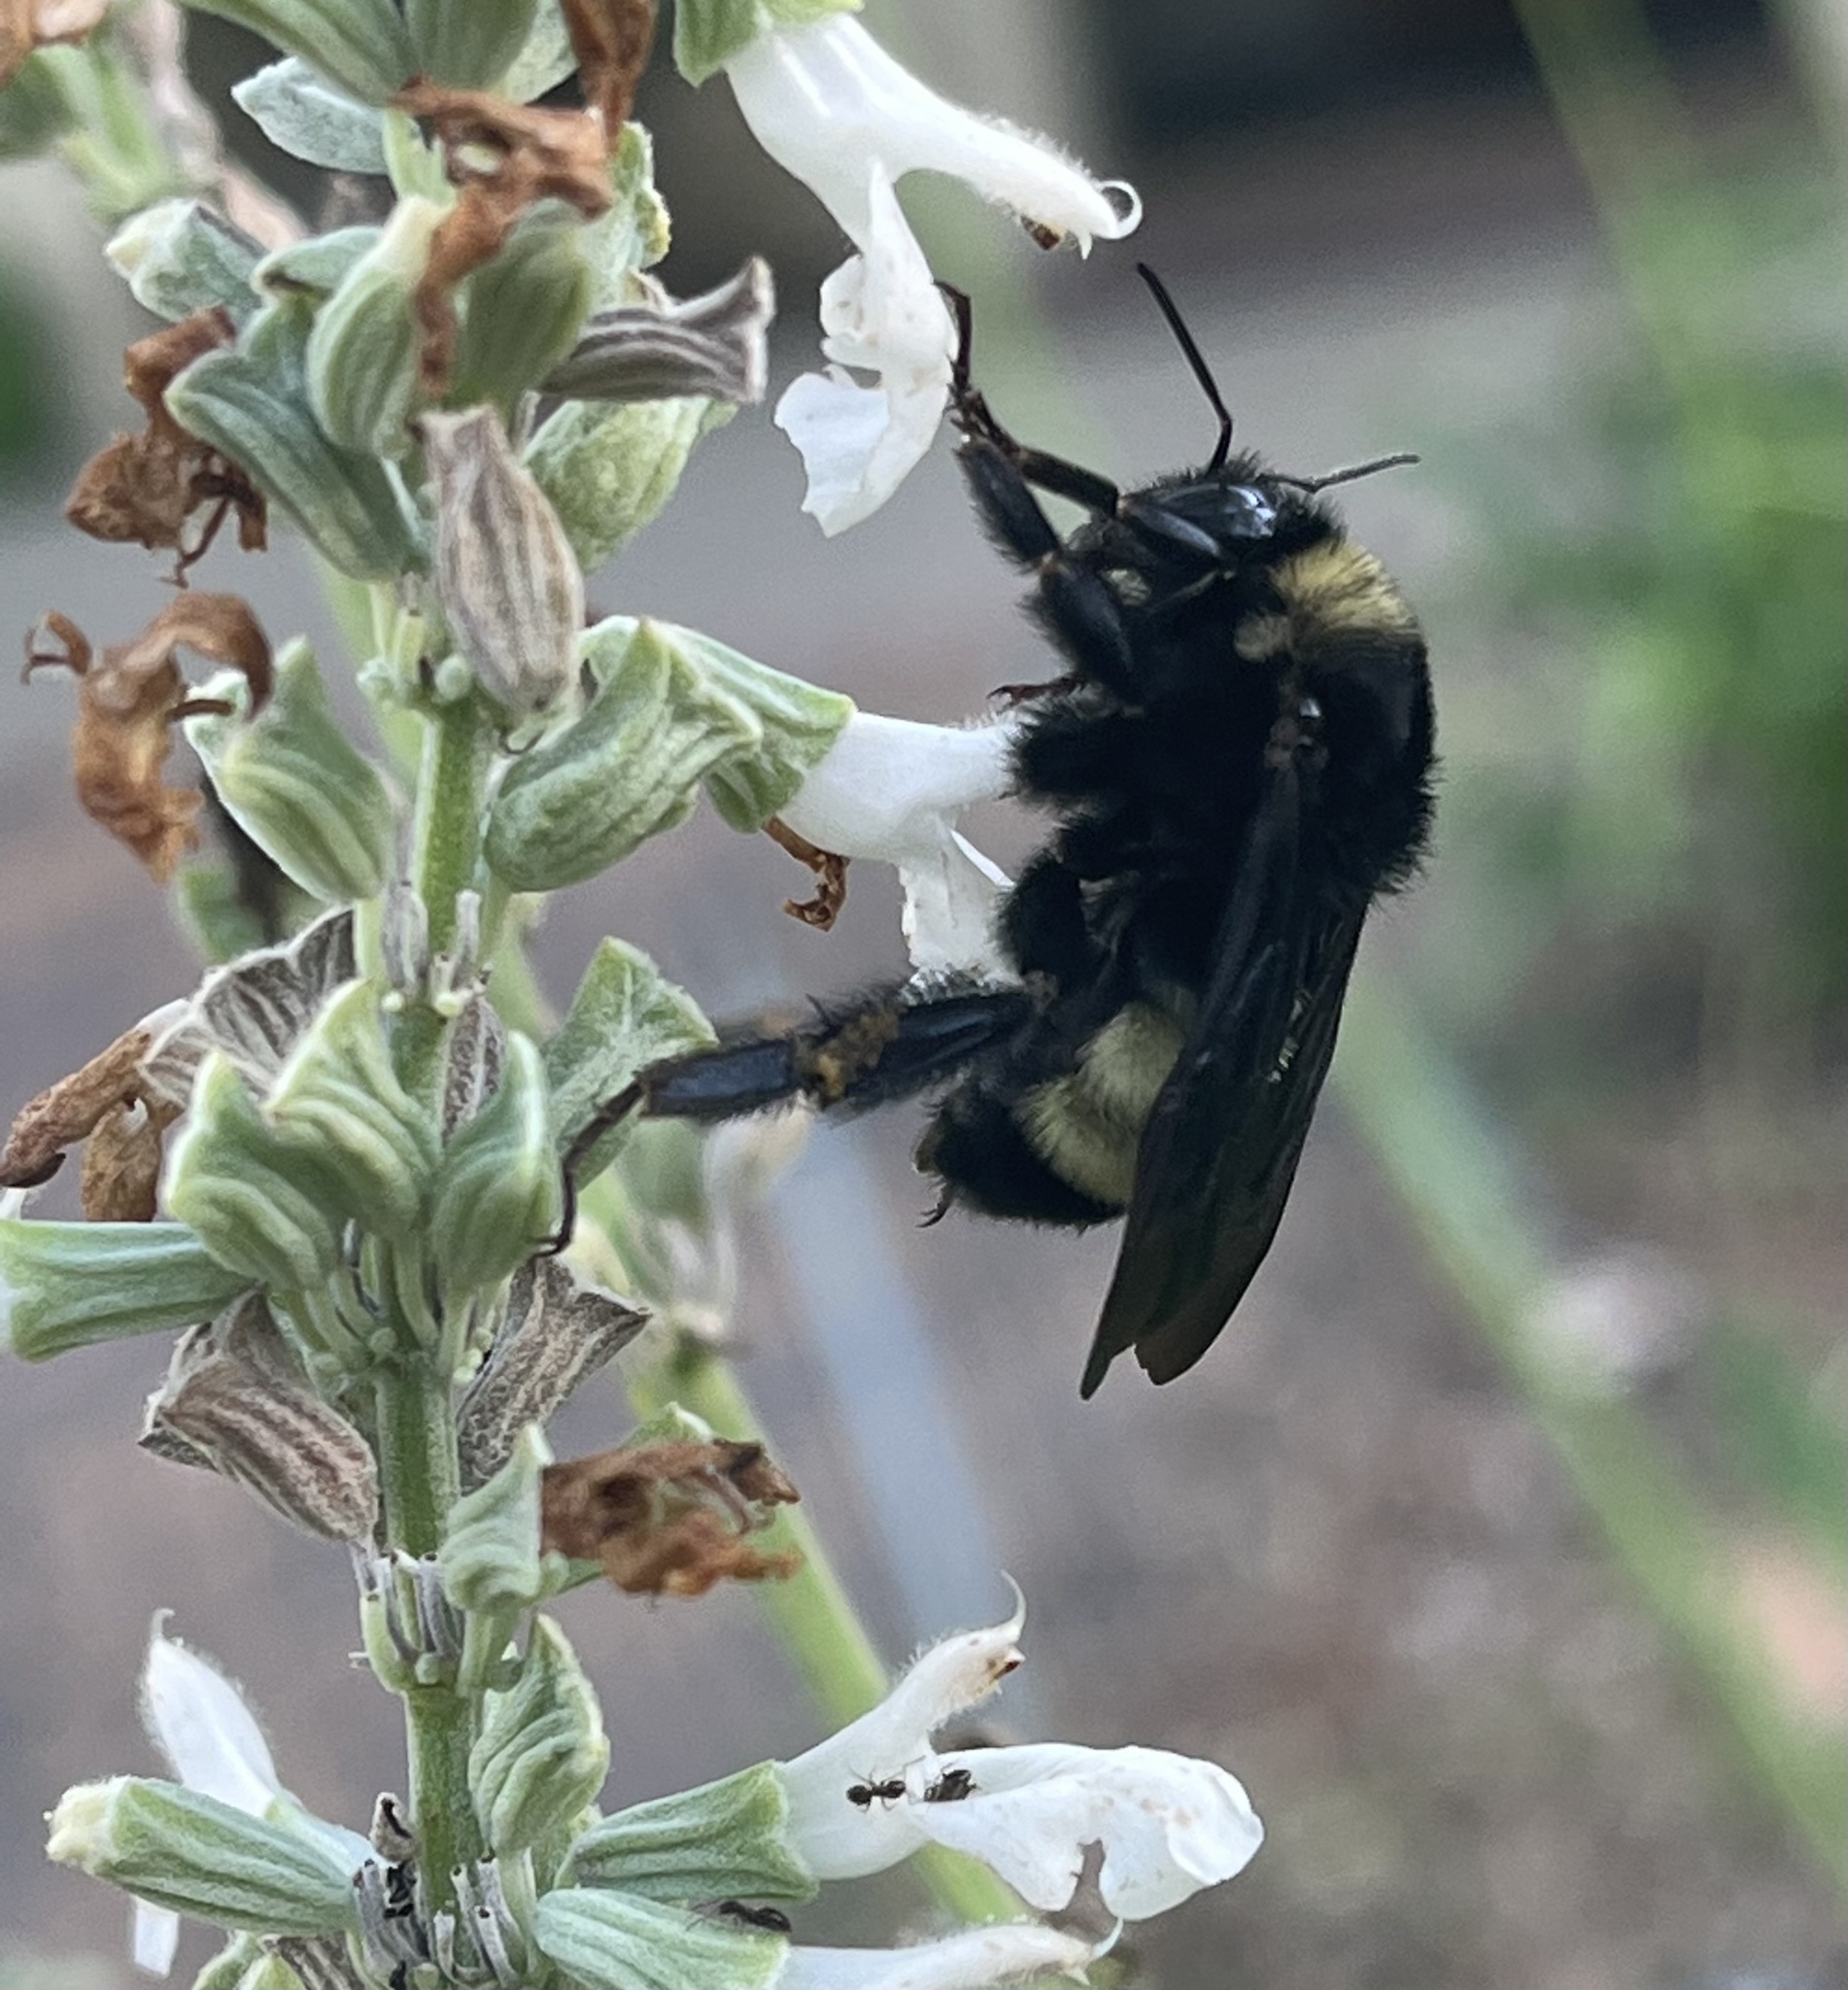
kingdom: Animalia
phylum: Arthropoda
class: Insecta
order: Hymenoptera
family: Apidae
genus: Bombus
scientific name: Bombus pensylvanicus
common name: Bumble bee
